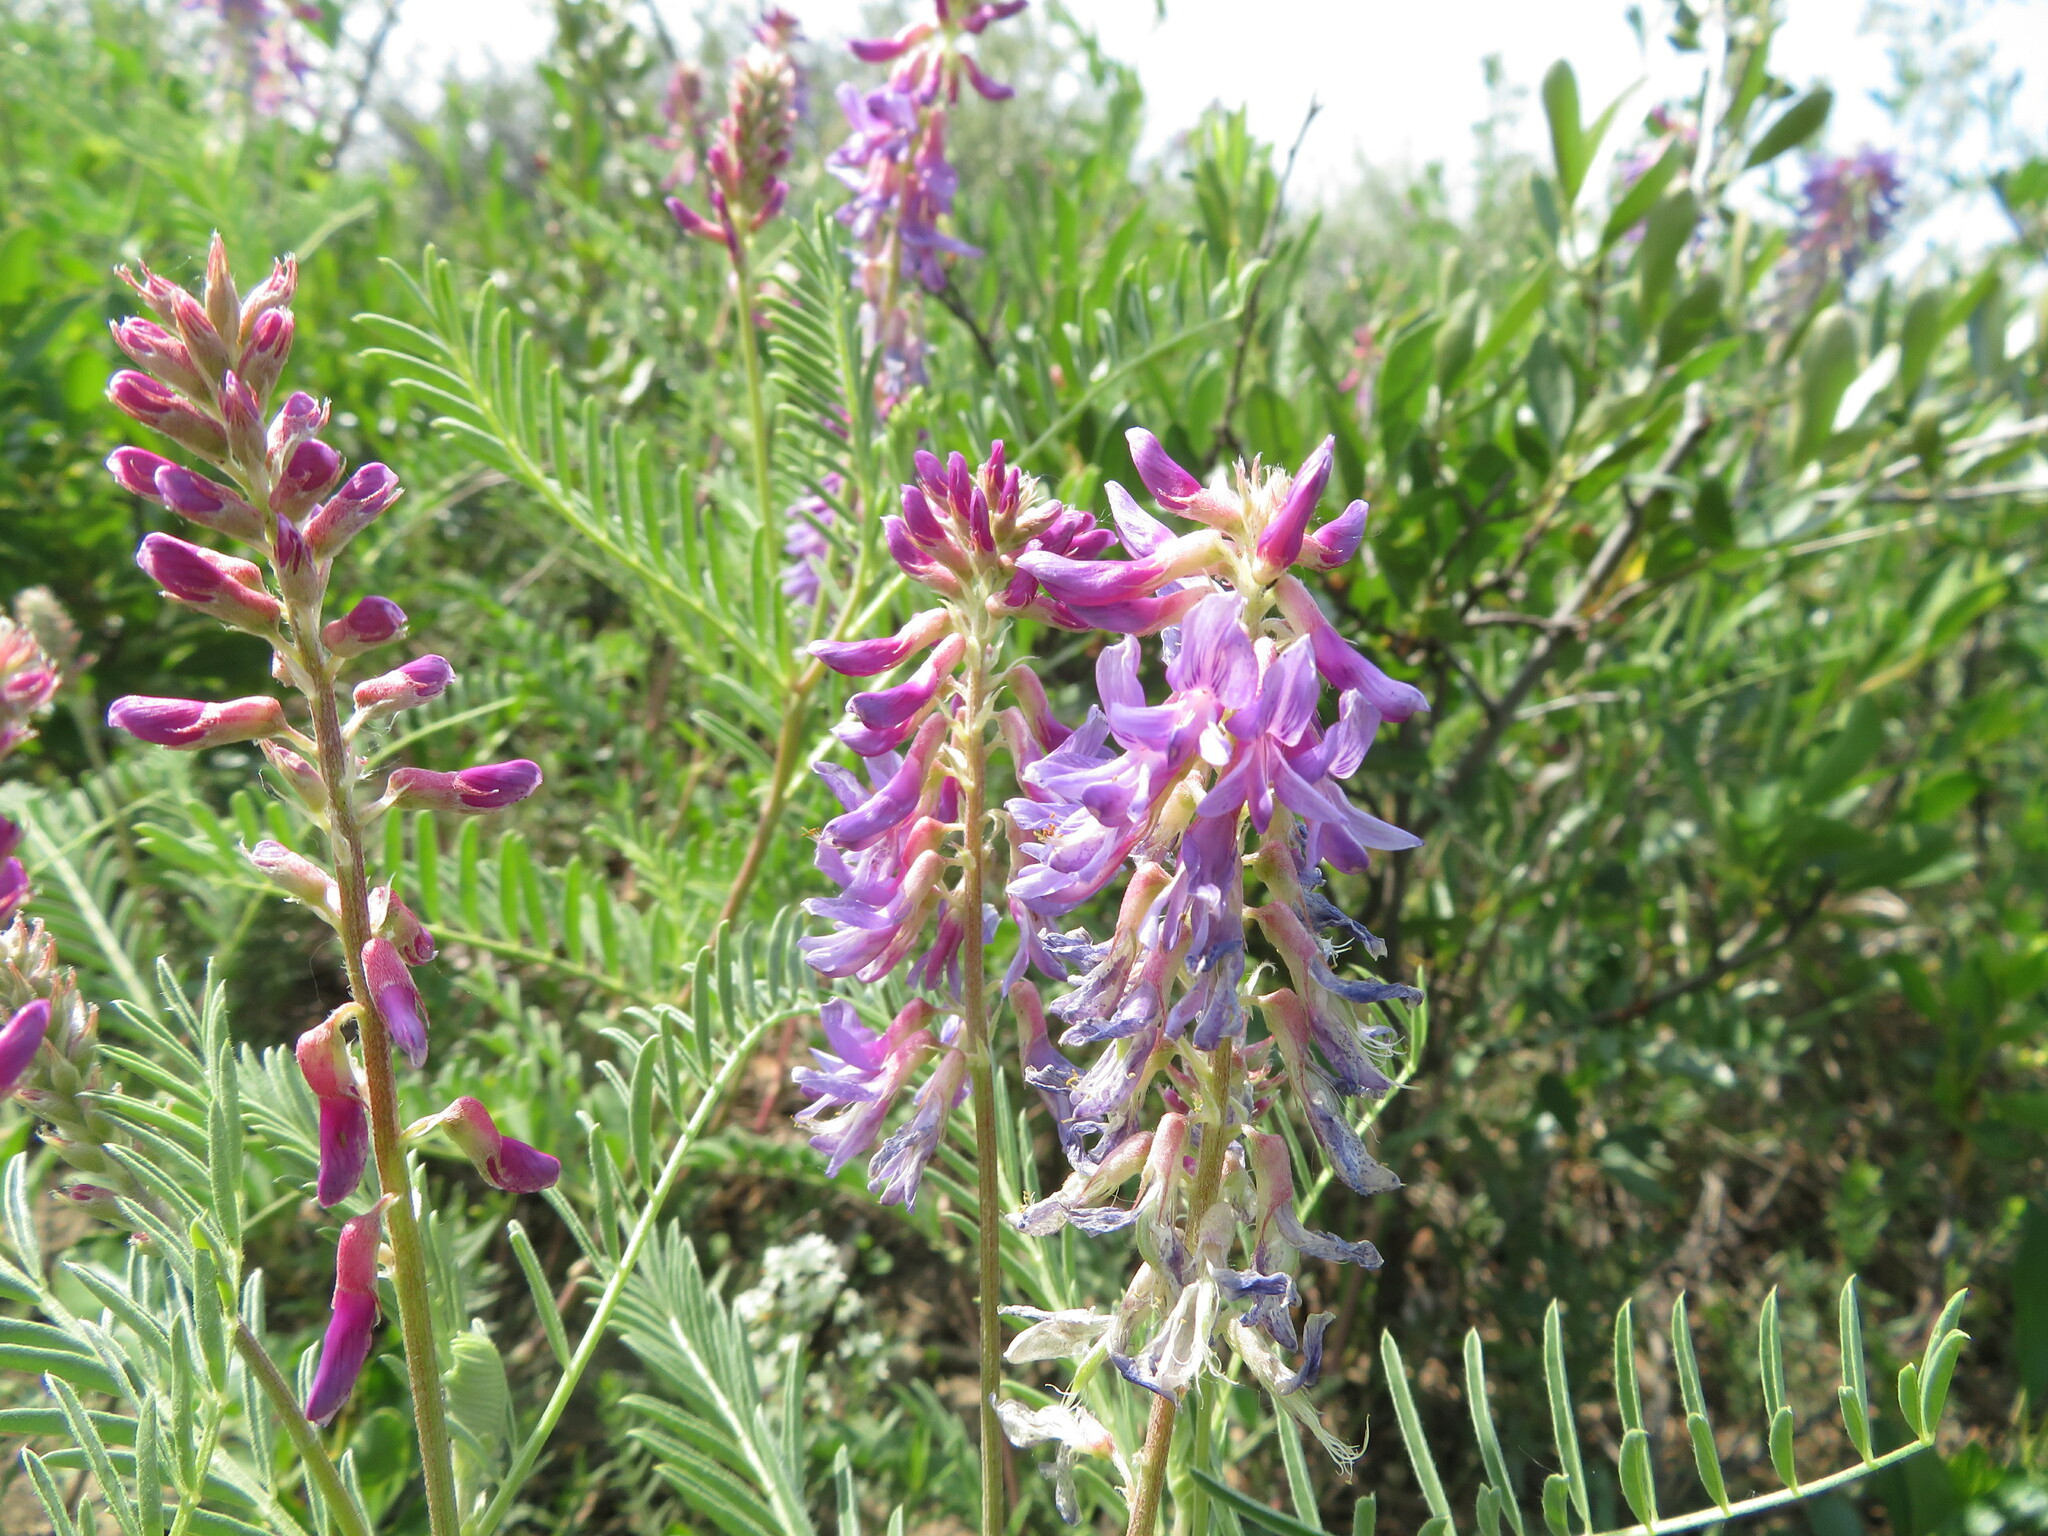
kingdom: Plantae
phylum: Tracheophyta
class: Magnoliopsida
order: Fabales
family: Fabaceae
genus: Astragalus
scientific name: Astragalus bisulcatus
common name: Two-groove milk-vetch
